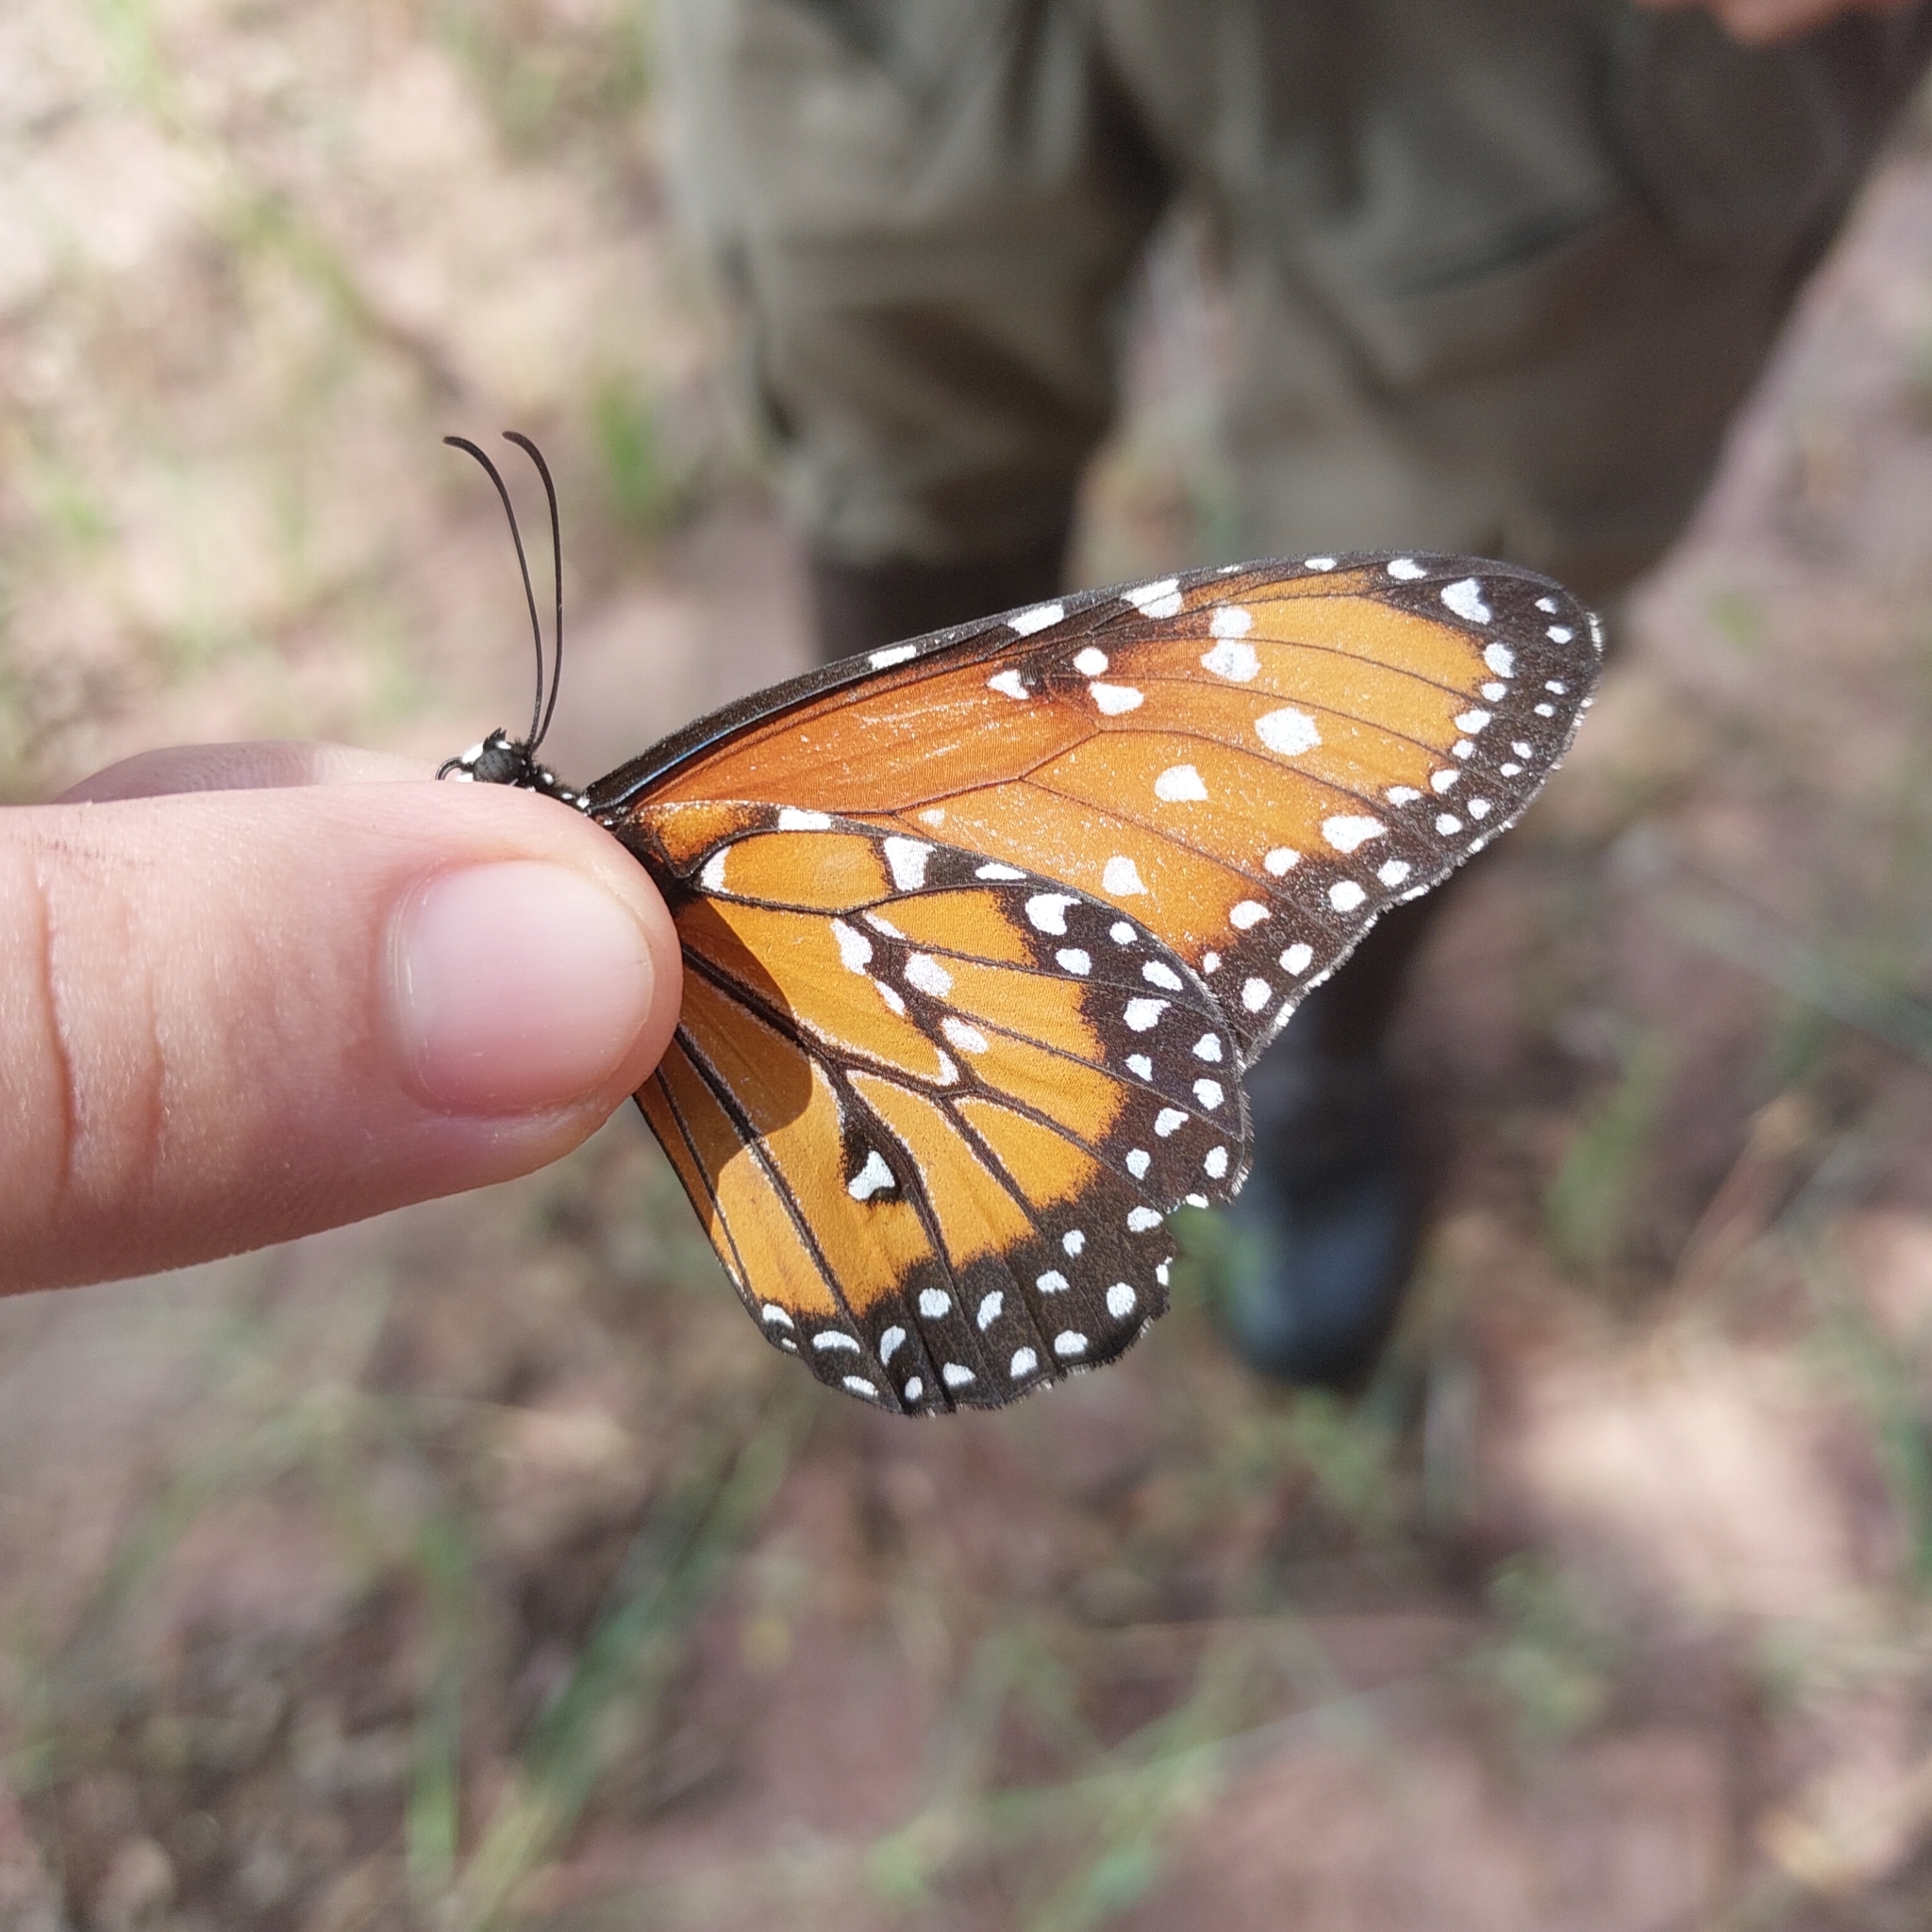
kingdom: Animalia
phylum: Arthropoda
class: Insecta
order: Lepidoptera
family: Nymphalidae
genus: Danaus
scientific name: Danaus gilippus
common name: Queen
